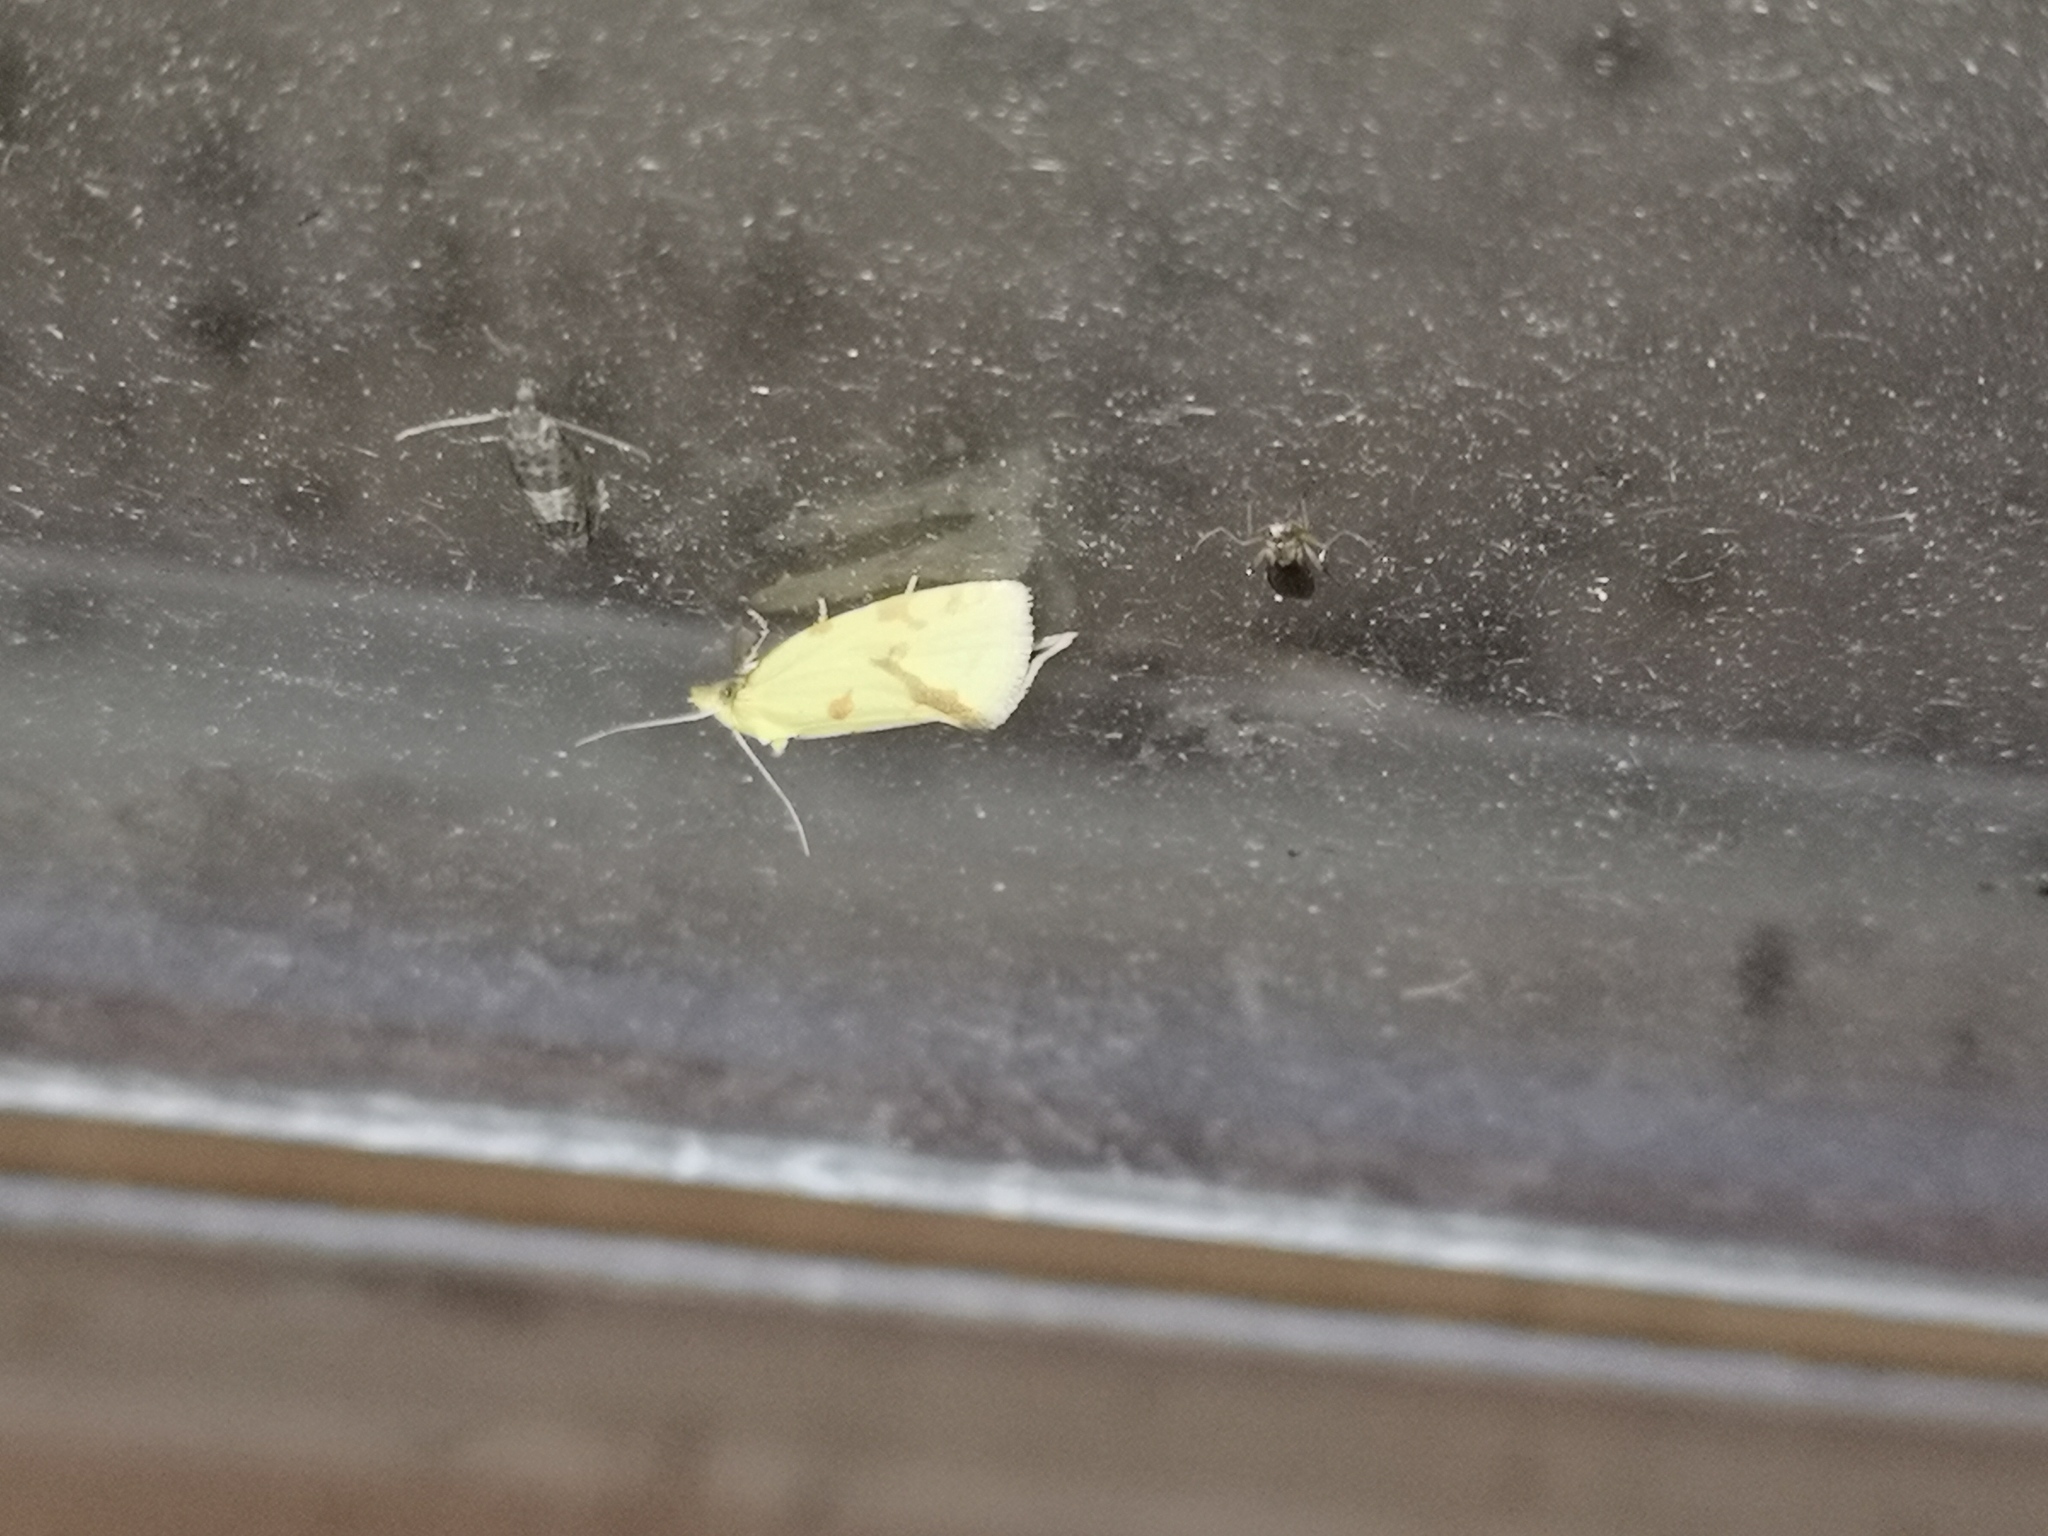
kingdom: Animalia
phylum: Arthropoda
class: Insecta
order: Lepidoptera
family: Tortricidae
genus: Agapeta
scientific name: Agapeta hamana
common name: Common yellow conch
